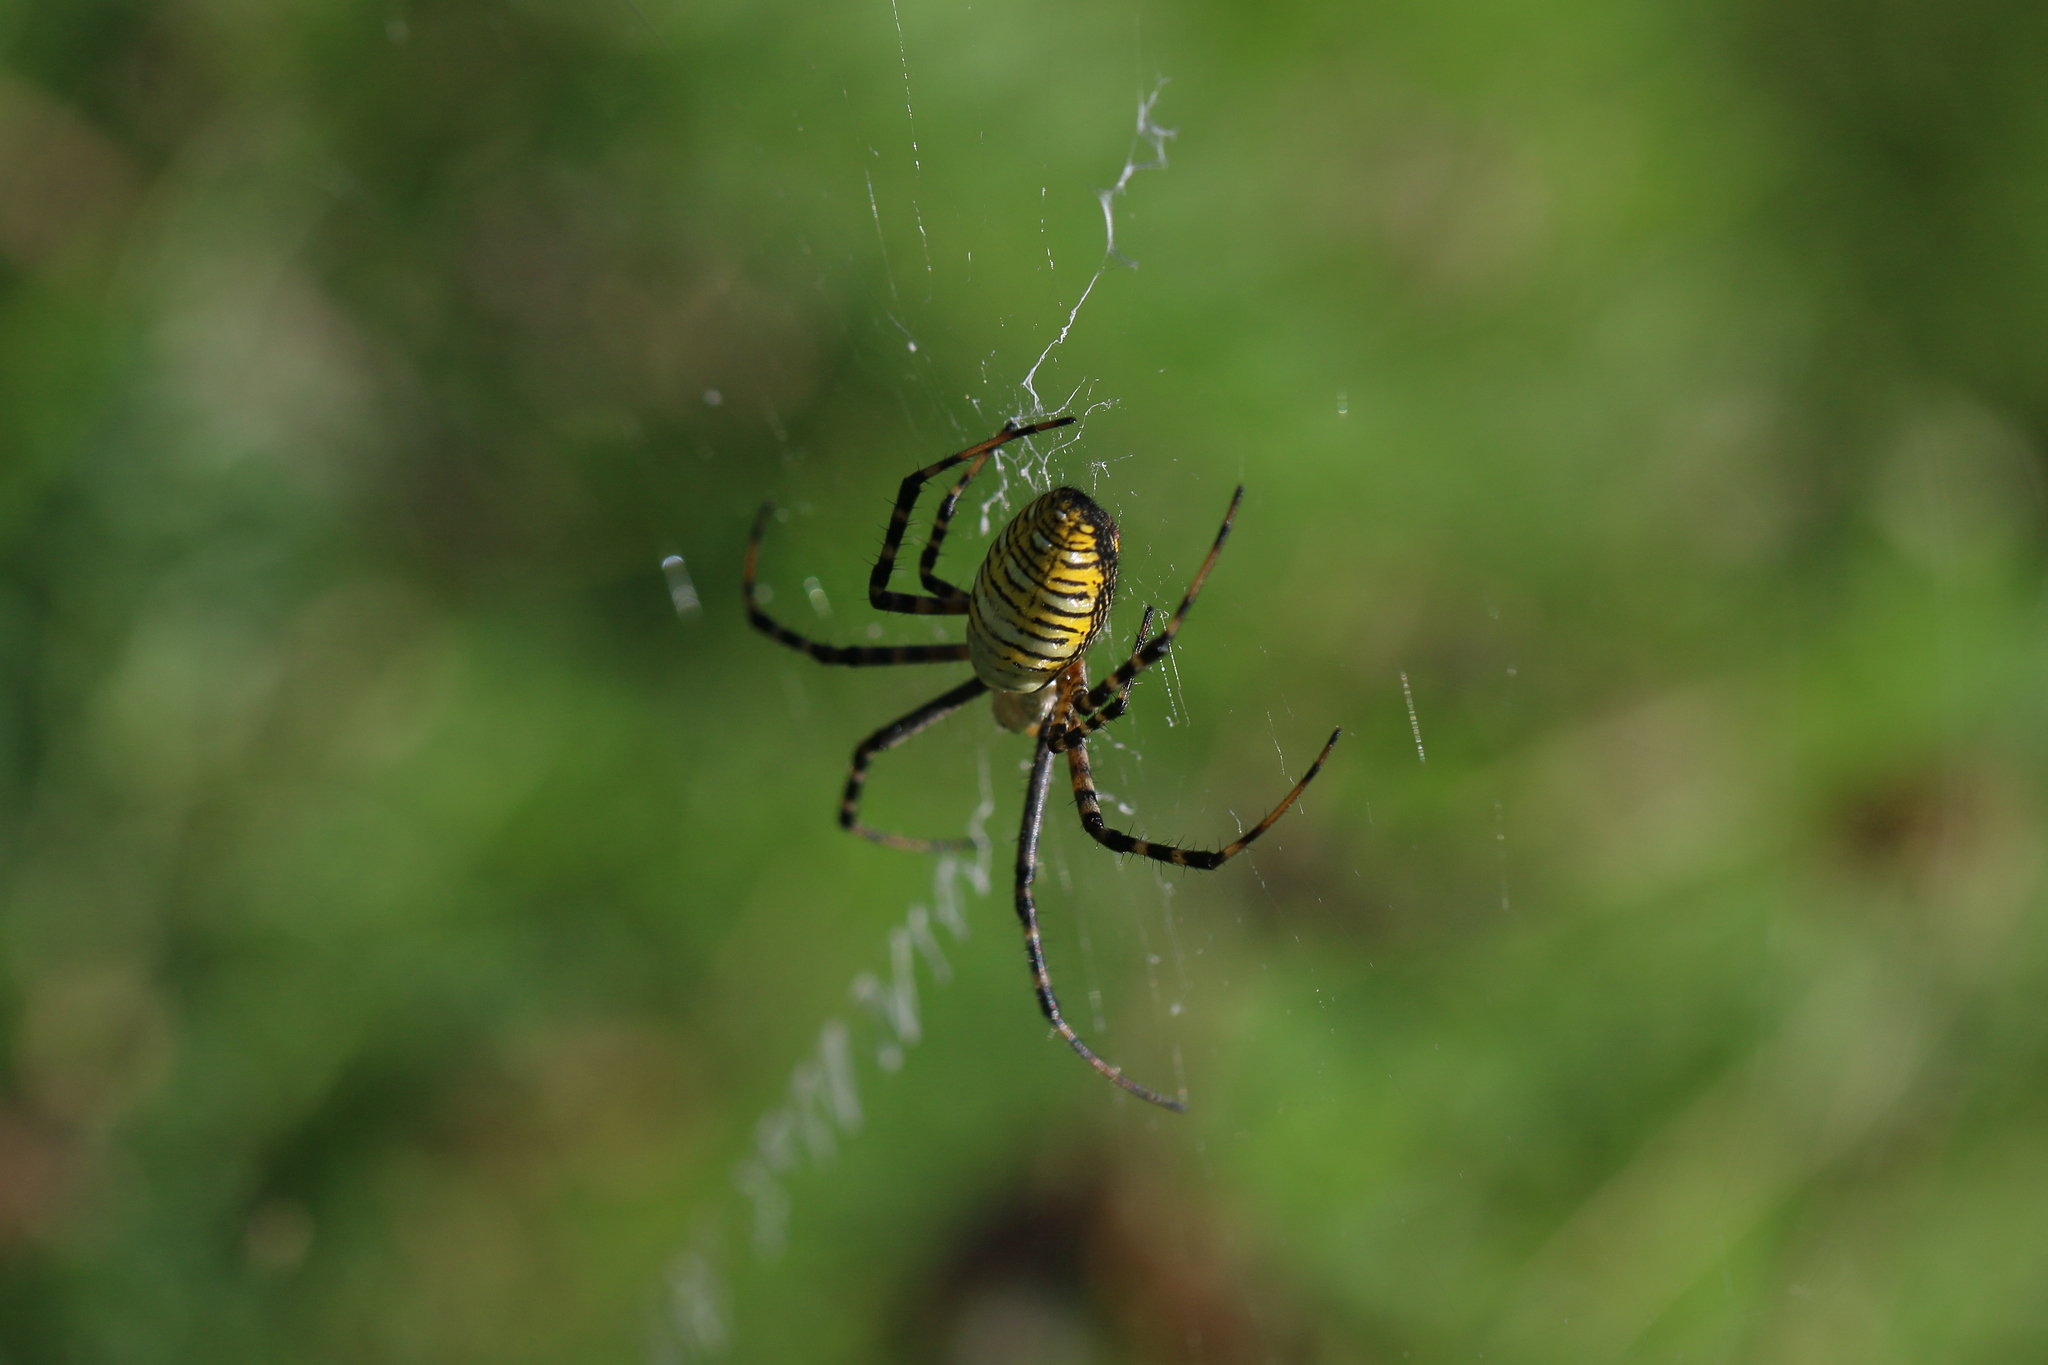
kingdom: Animalia
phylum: Arthropoda
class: Arachnida
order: Araneae
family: Araneidae
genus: Argiope
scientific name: Argiope trifasciata
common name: Banded garden spider
